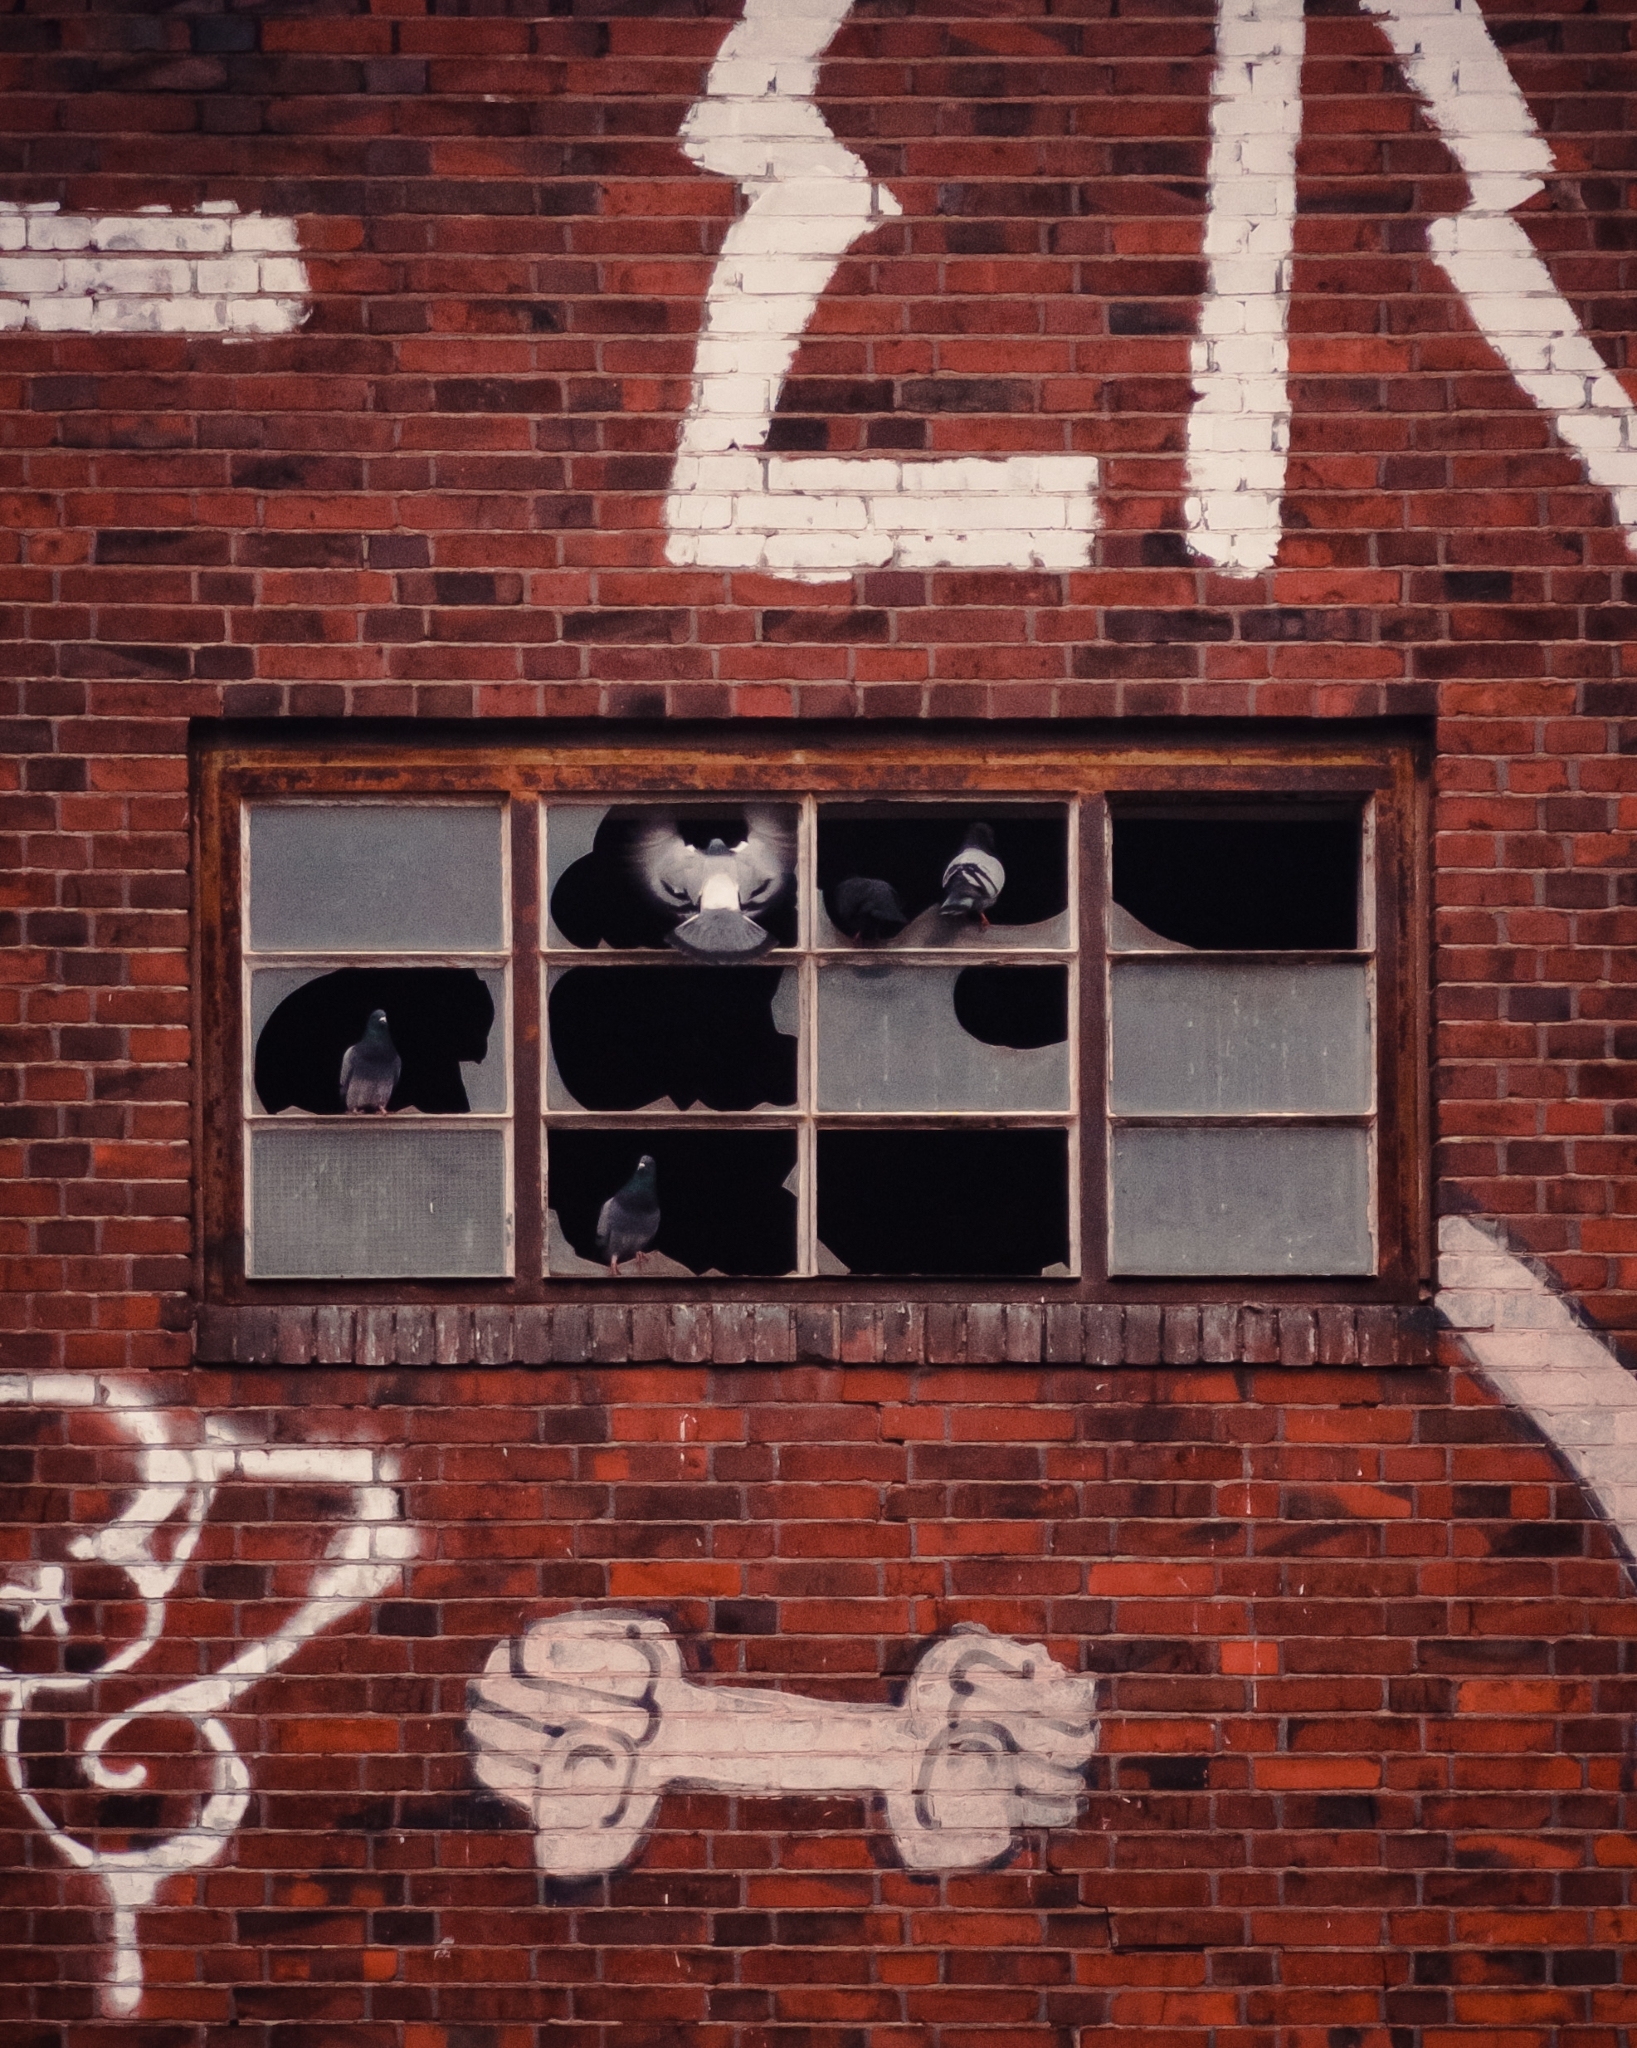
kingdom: Animalia
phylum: Chordata
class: Aves
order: Columbiformes
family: Columbidae
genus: Columba
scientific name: Columba livia
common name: Rock pigeon
